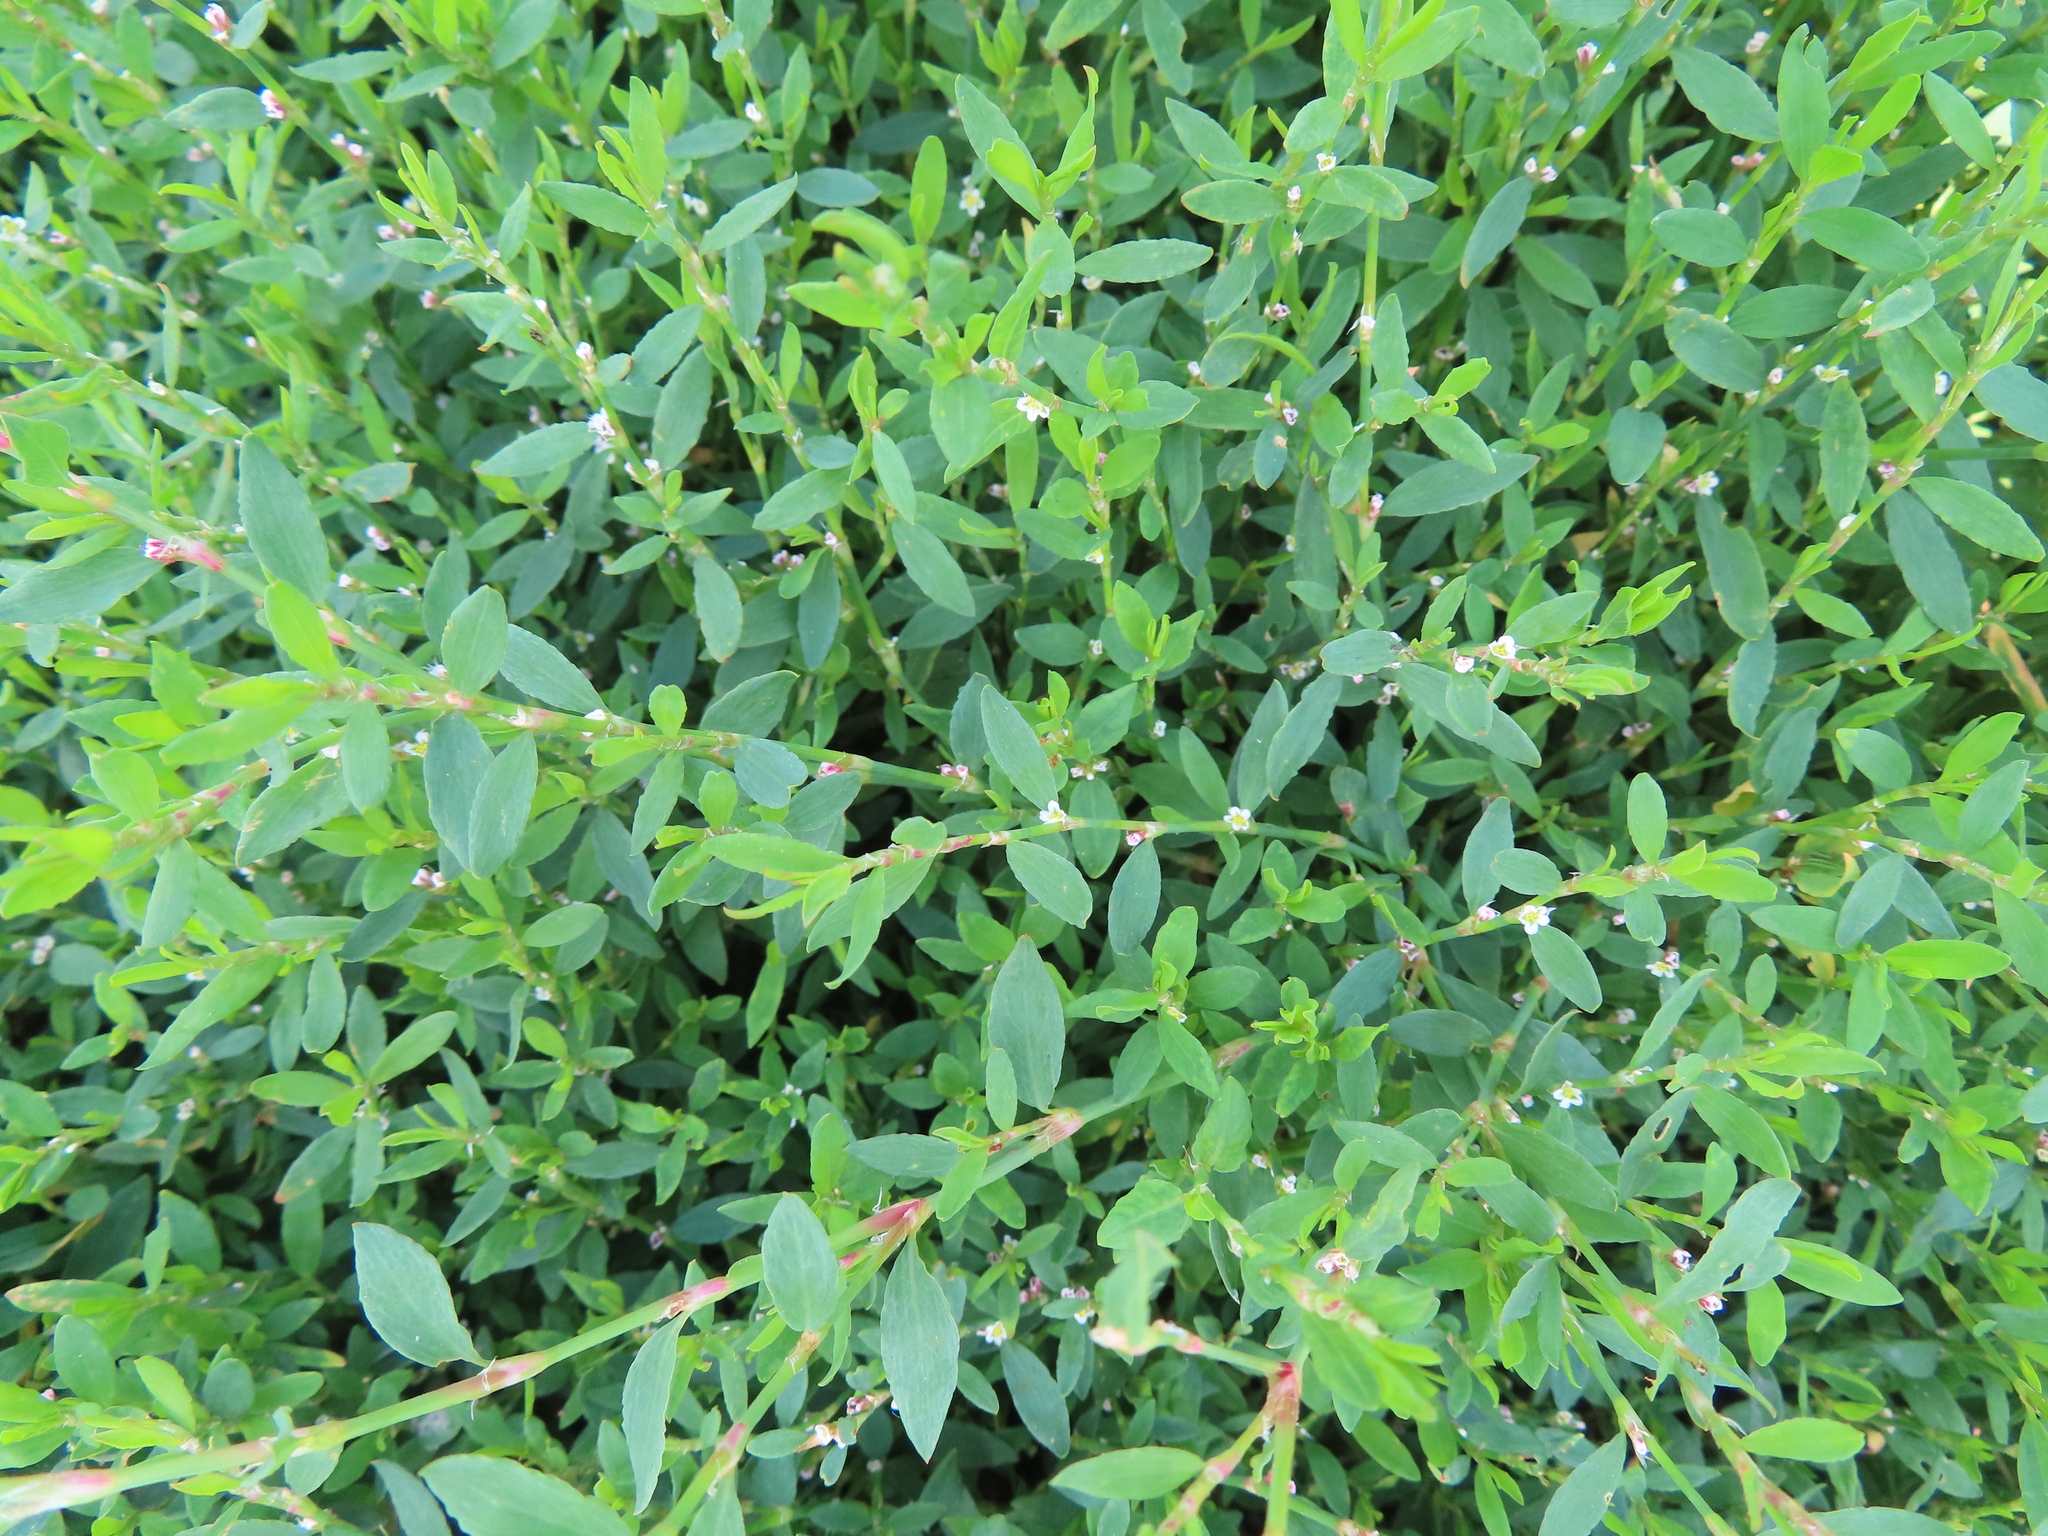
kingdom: Plantae
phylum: Tracheophyta
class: Magnoliopsida
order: Caryophyllales
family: Polygonaceae
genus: Polygonum
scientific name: Polygonum aviculare
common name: Prostrate knotweed
